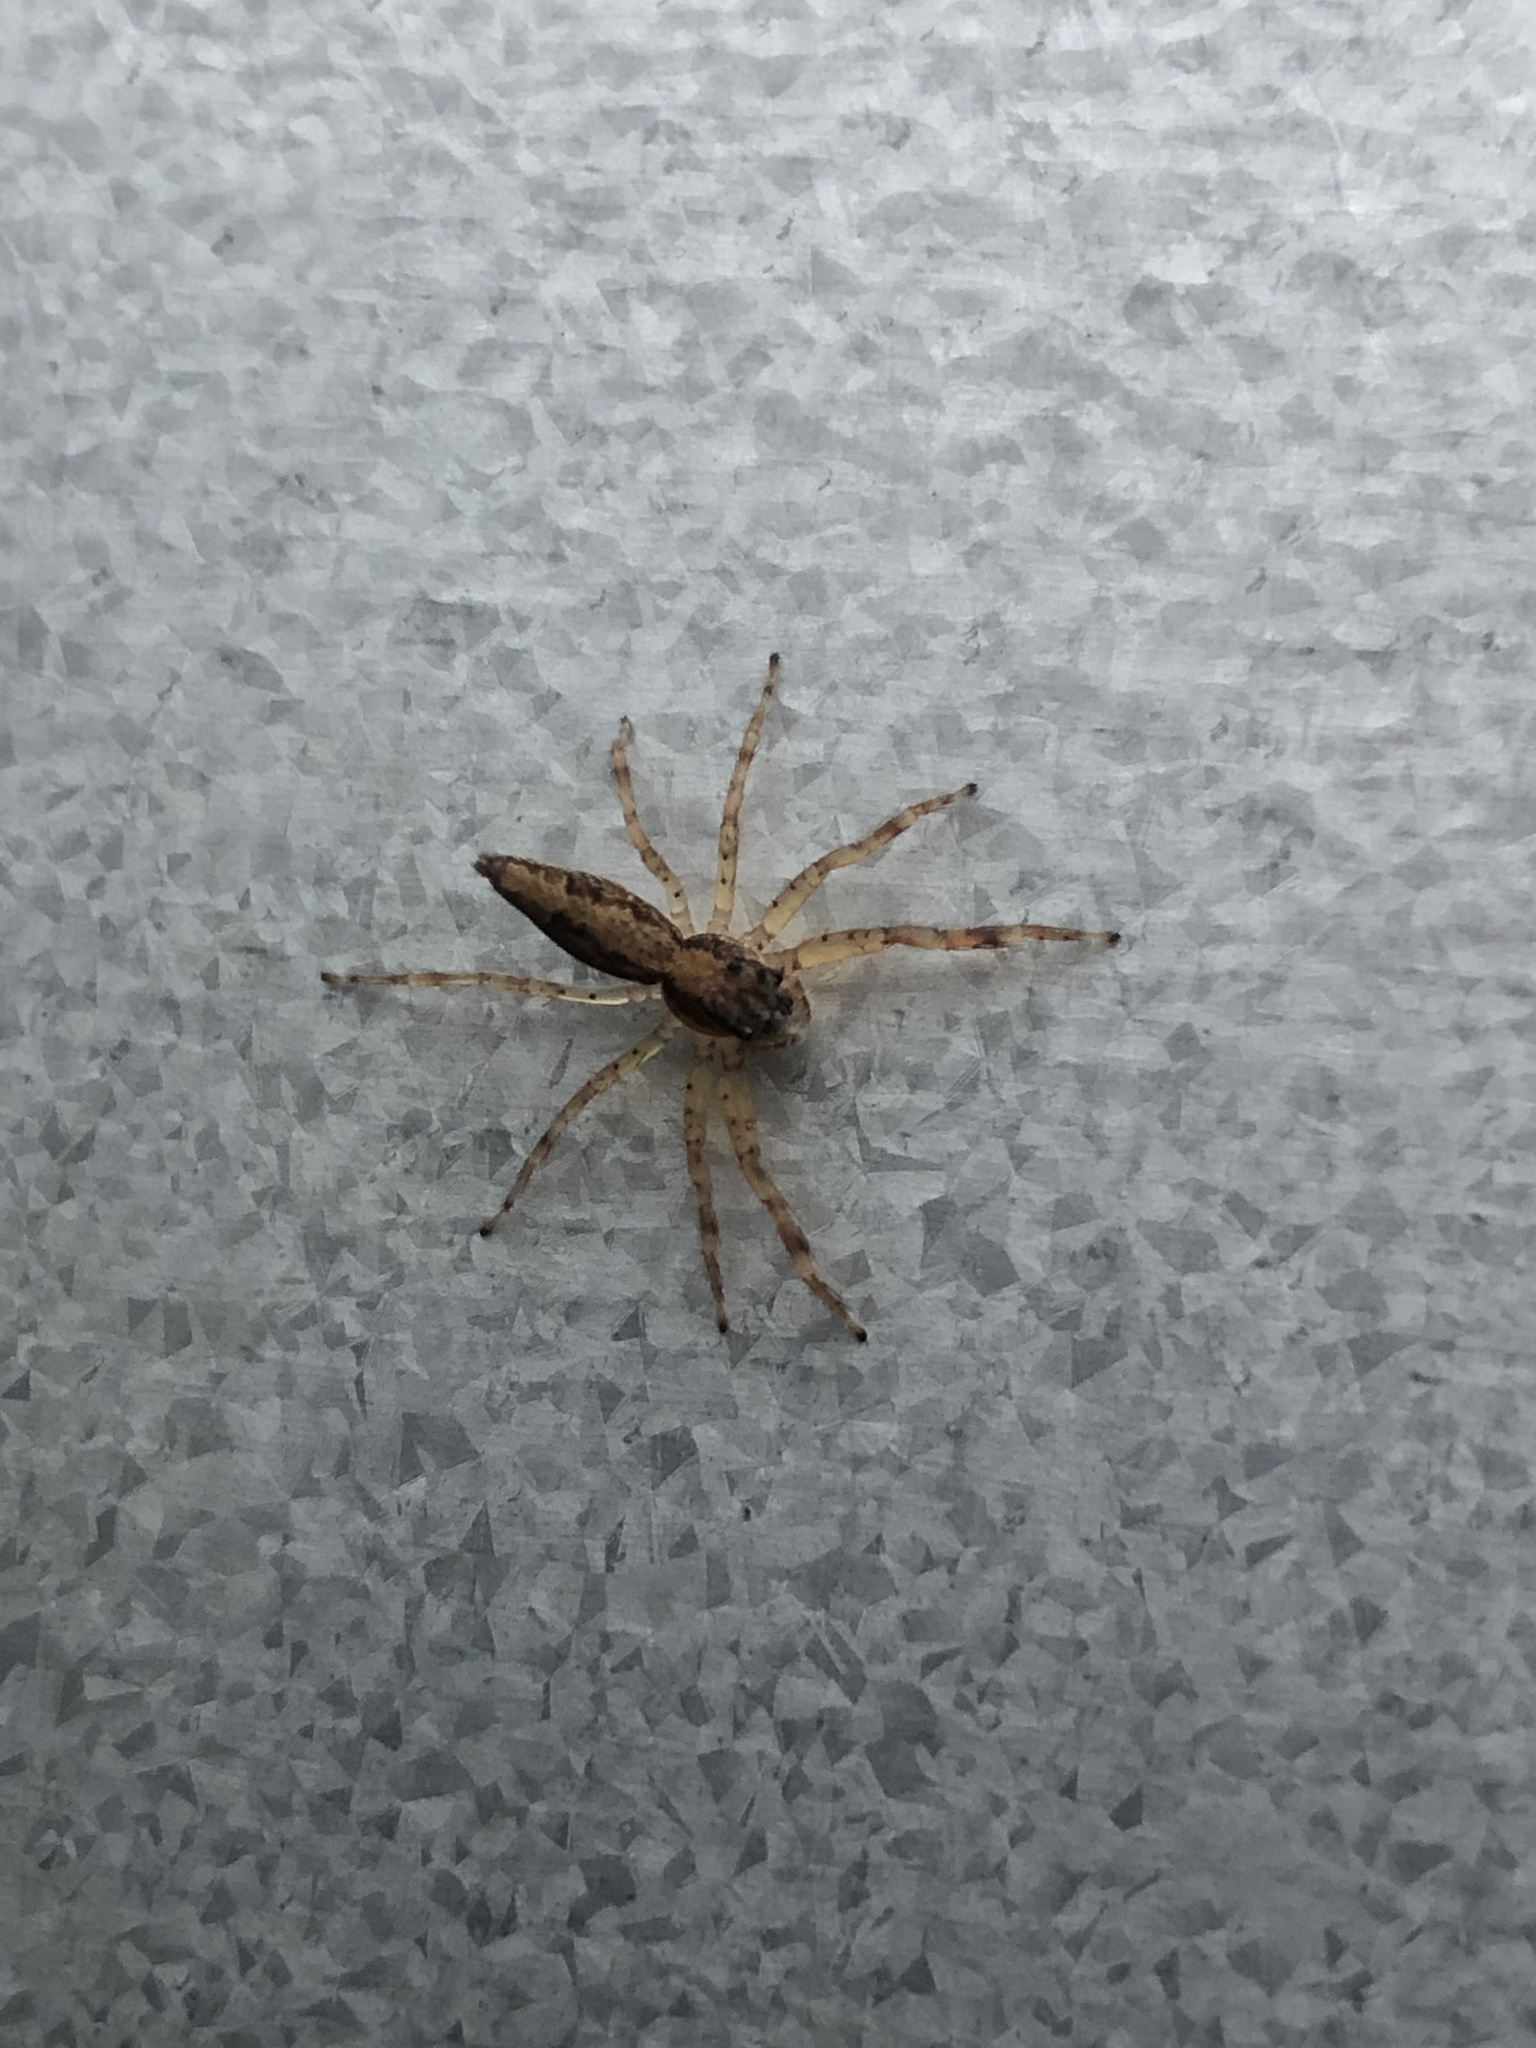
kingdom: Animalia
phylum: Arthropoda
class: Arachnida
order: Araneae
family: Salticidae
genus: Helpis
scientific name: Helpis minitabunda
